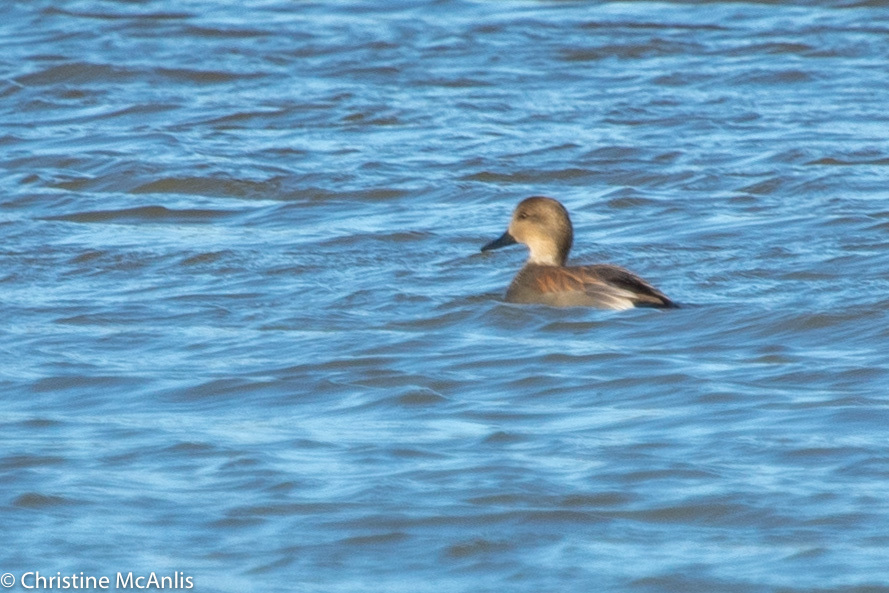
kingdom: Animalia
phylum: Chordata
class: Aves
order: Anseriformes
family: Anatidae
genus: Mareca
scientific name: Mareca strepera
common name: Gadwall
